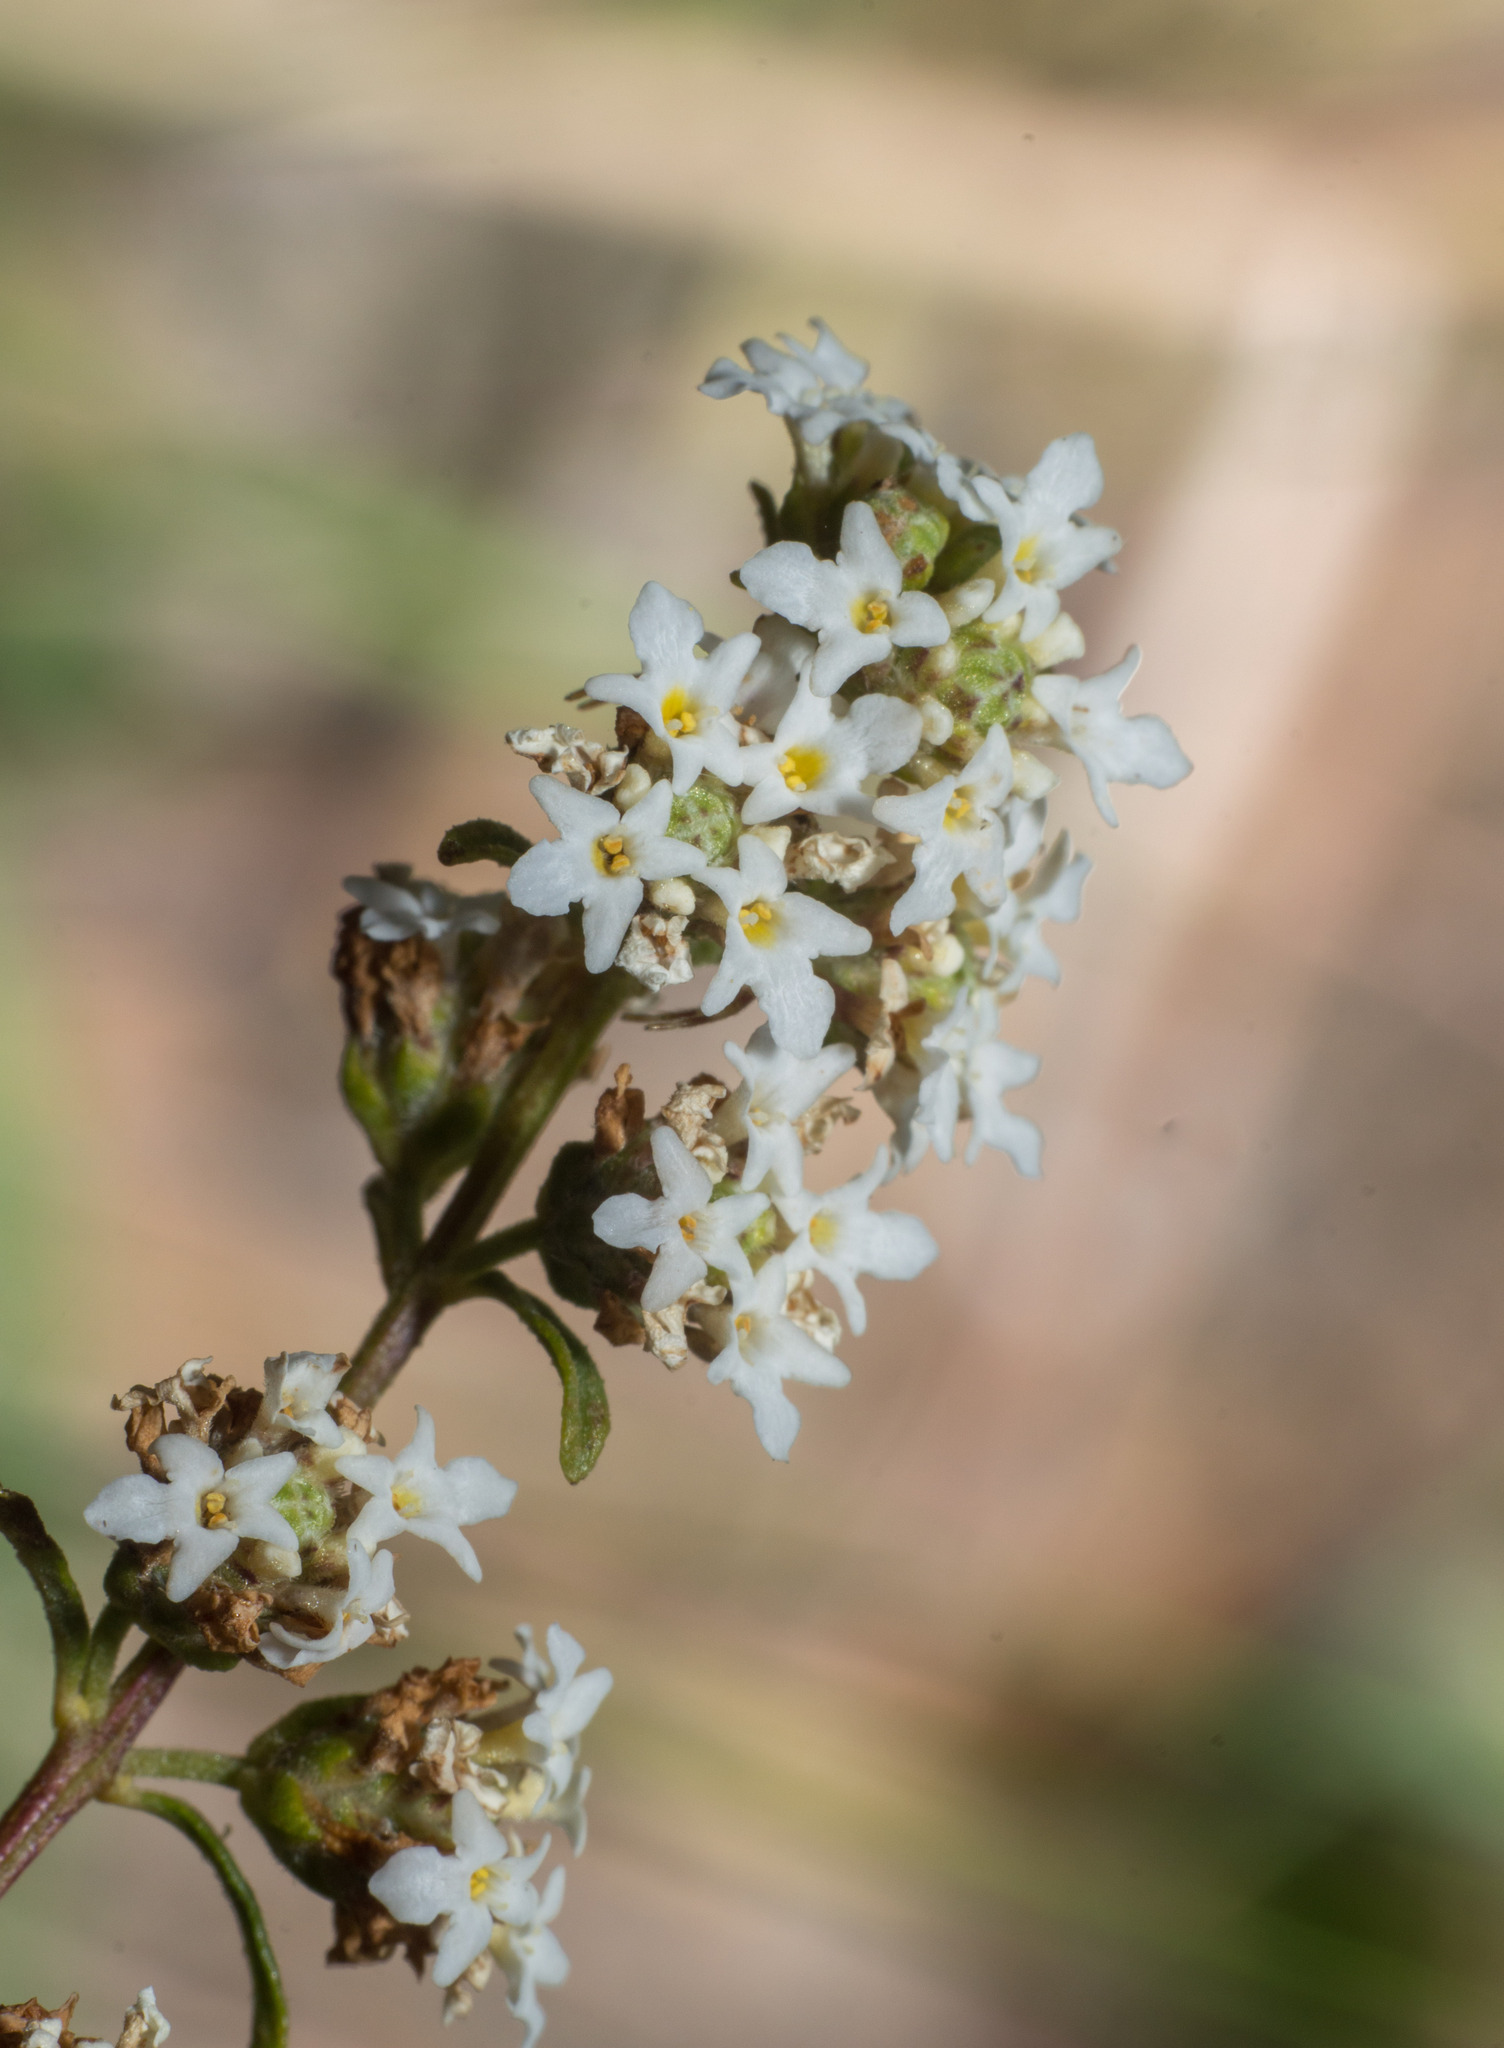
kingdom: Plantae
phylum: Tracheophyta
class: Magnoliopsida
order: Lamiales
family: Verbenaceae
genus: Lippia
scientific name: Lippia integrifolia
